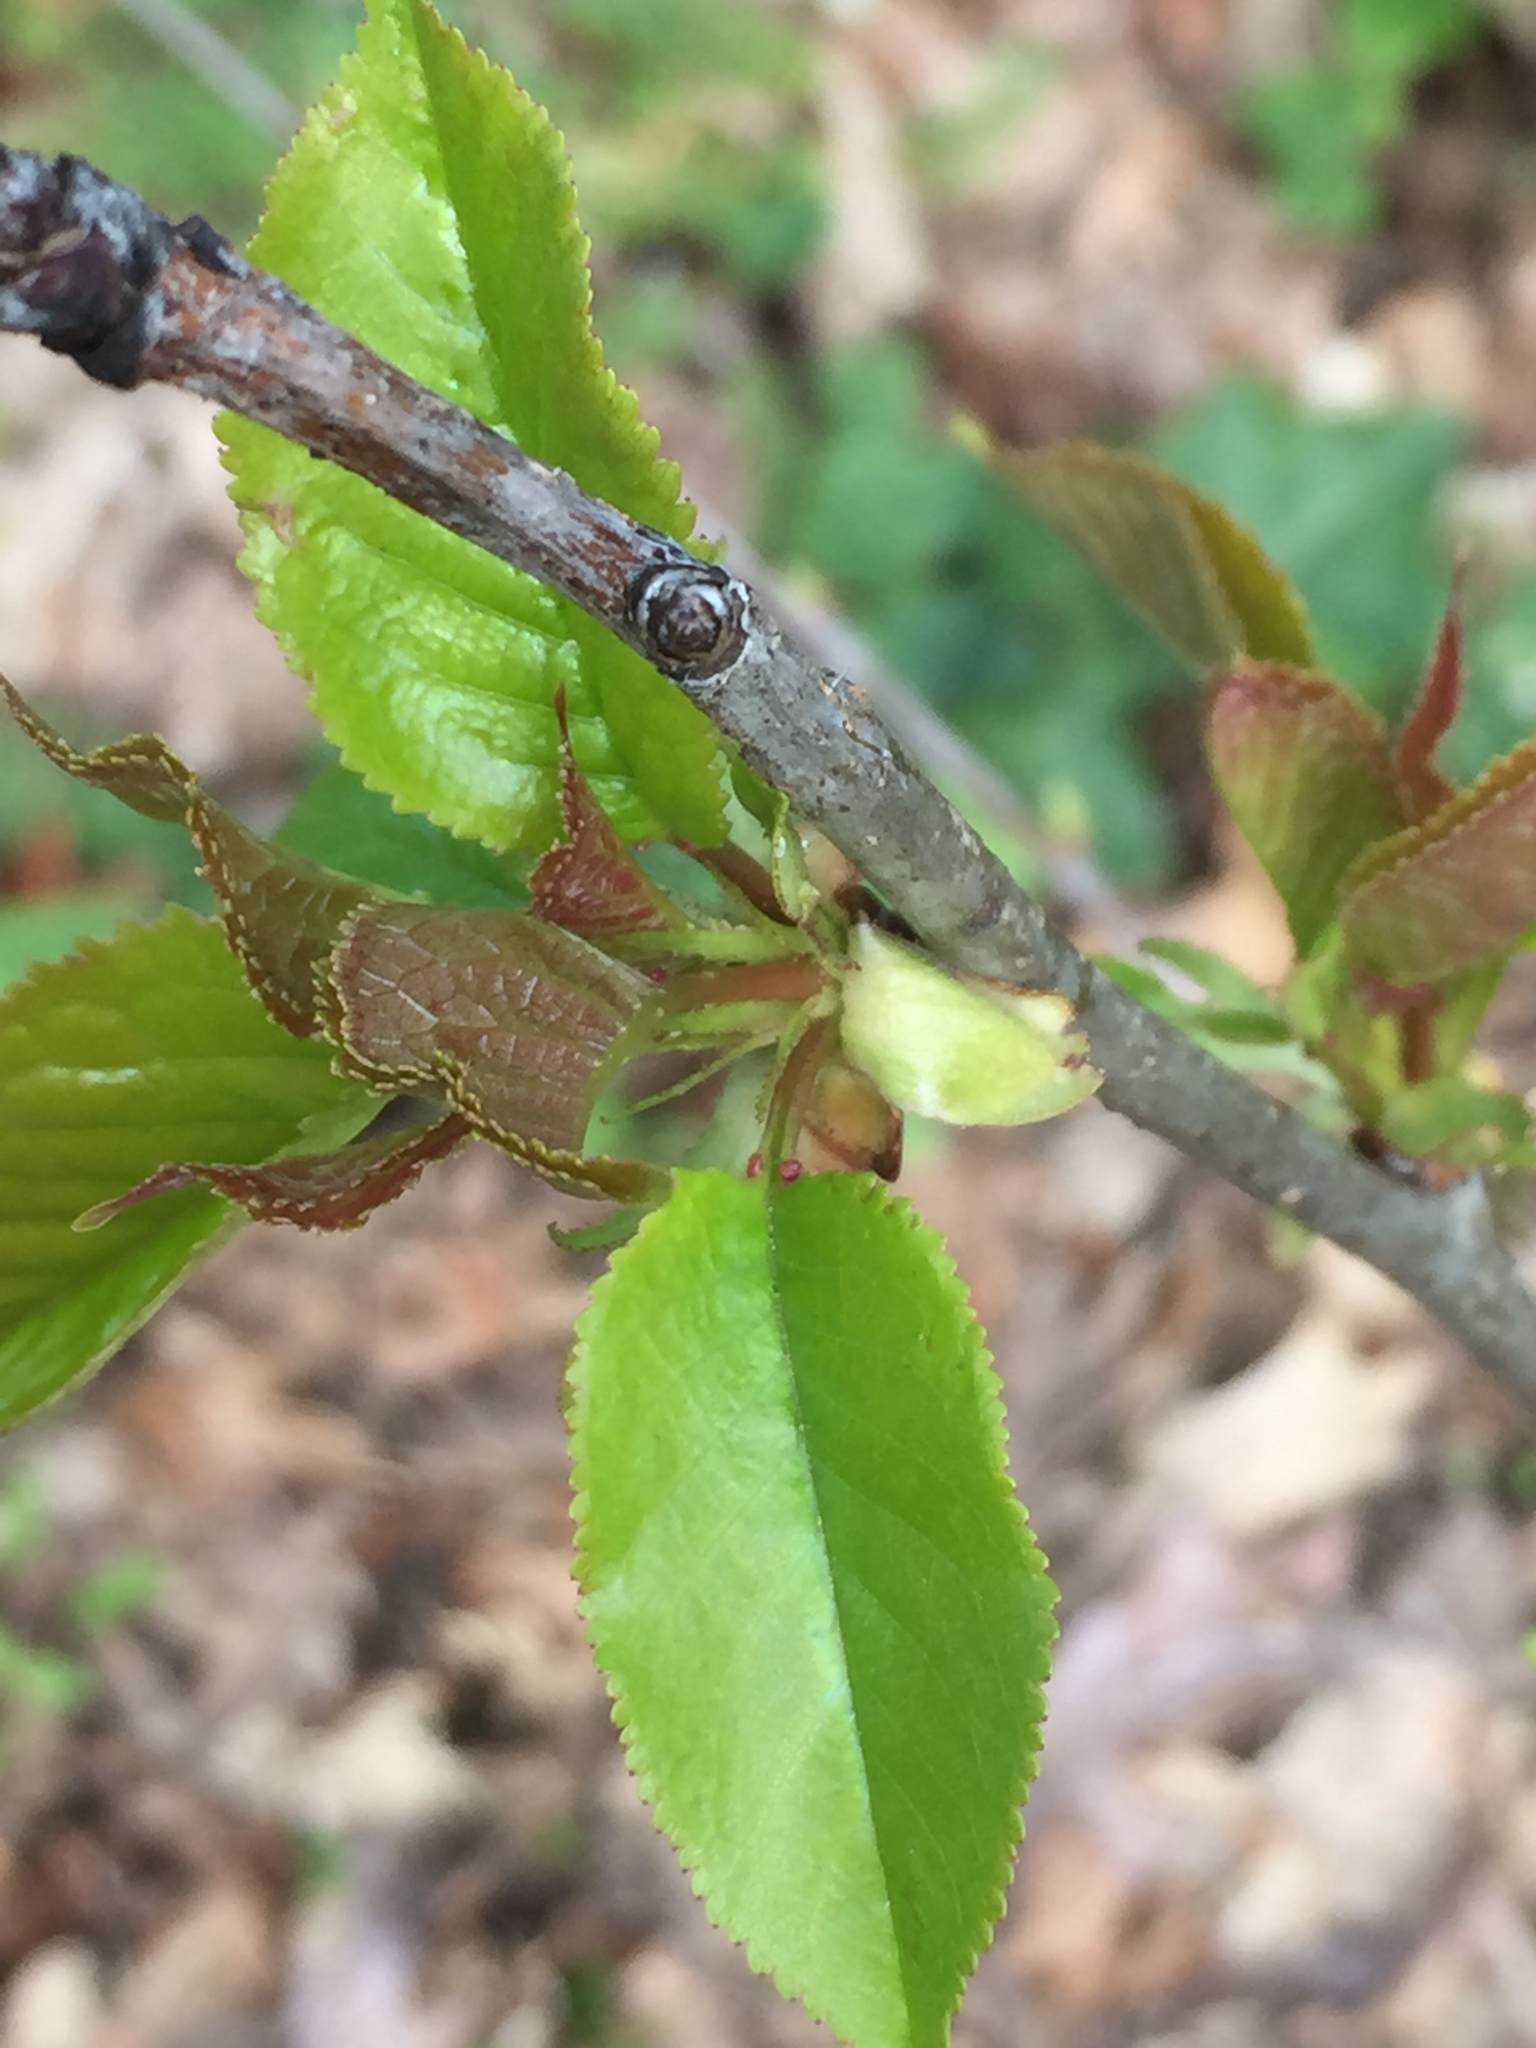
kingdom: Plantae
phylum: Tracheophyta
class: Magnoliopsida
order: Rosales
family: Rosaceae
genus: Prunus
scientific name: Prunus avium
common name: Sweet cherry
